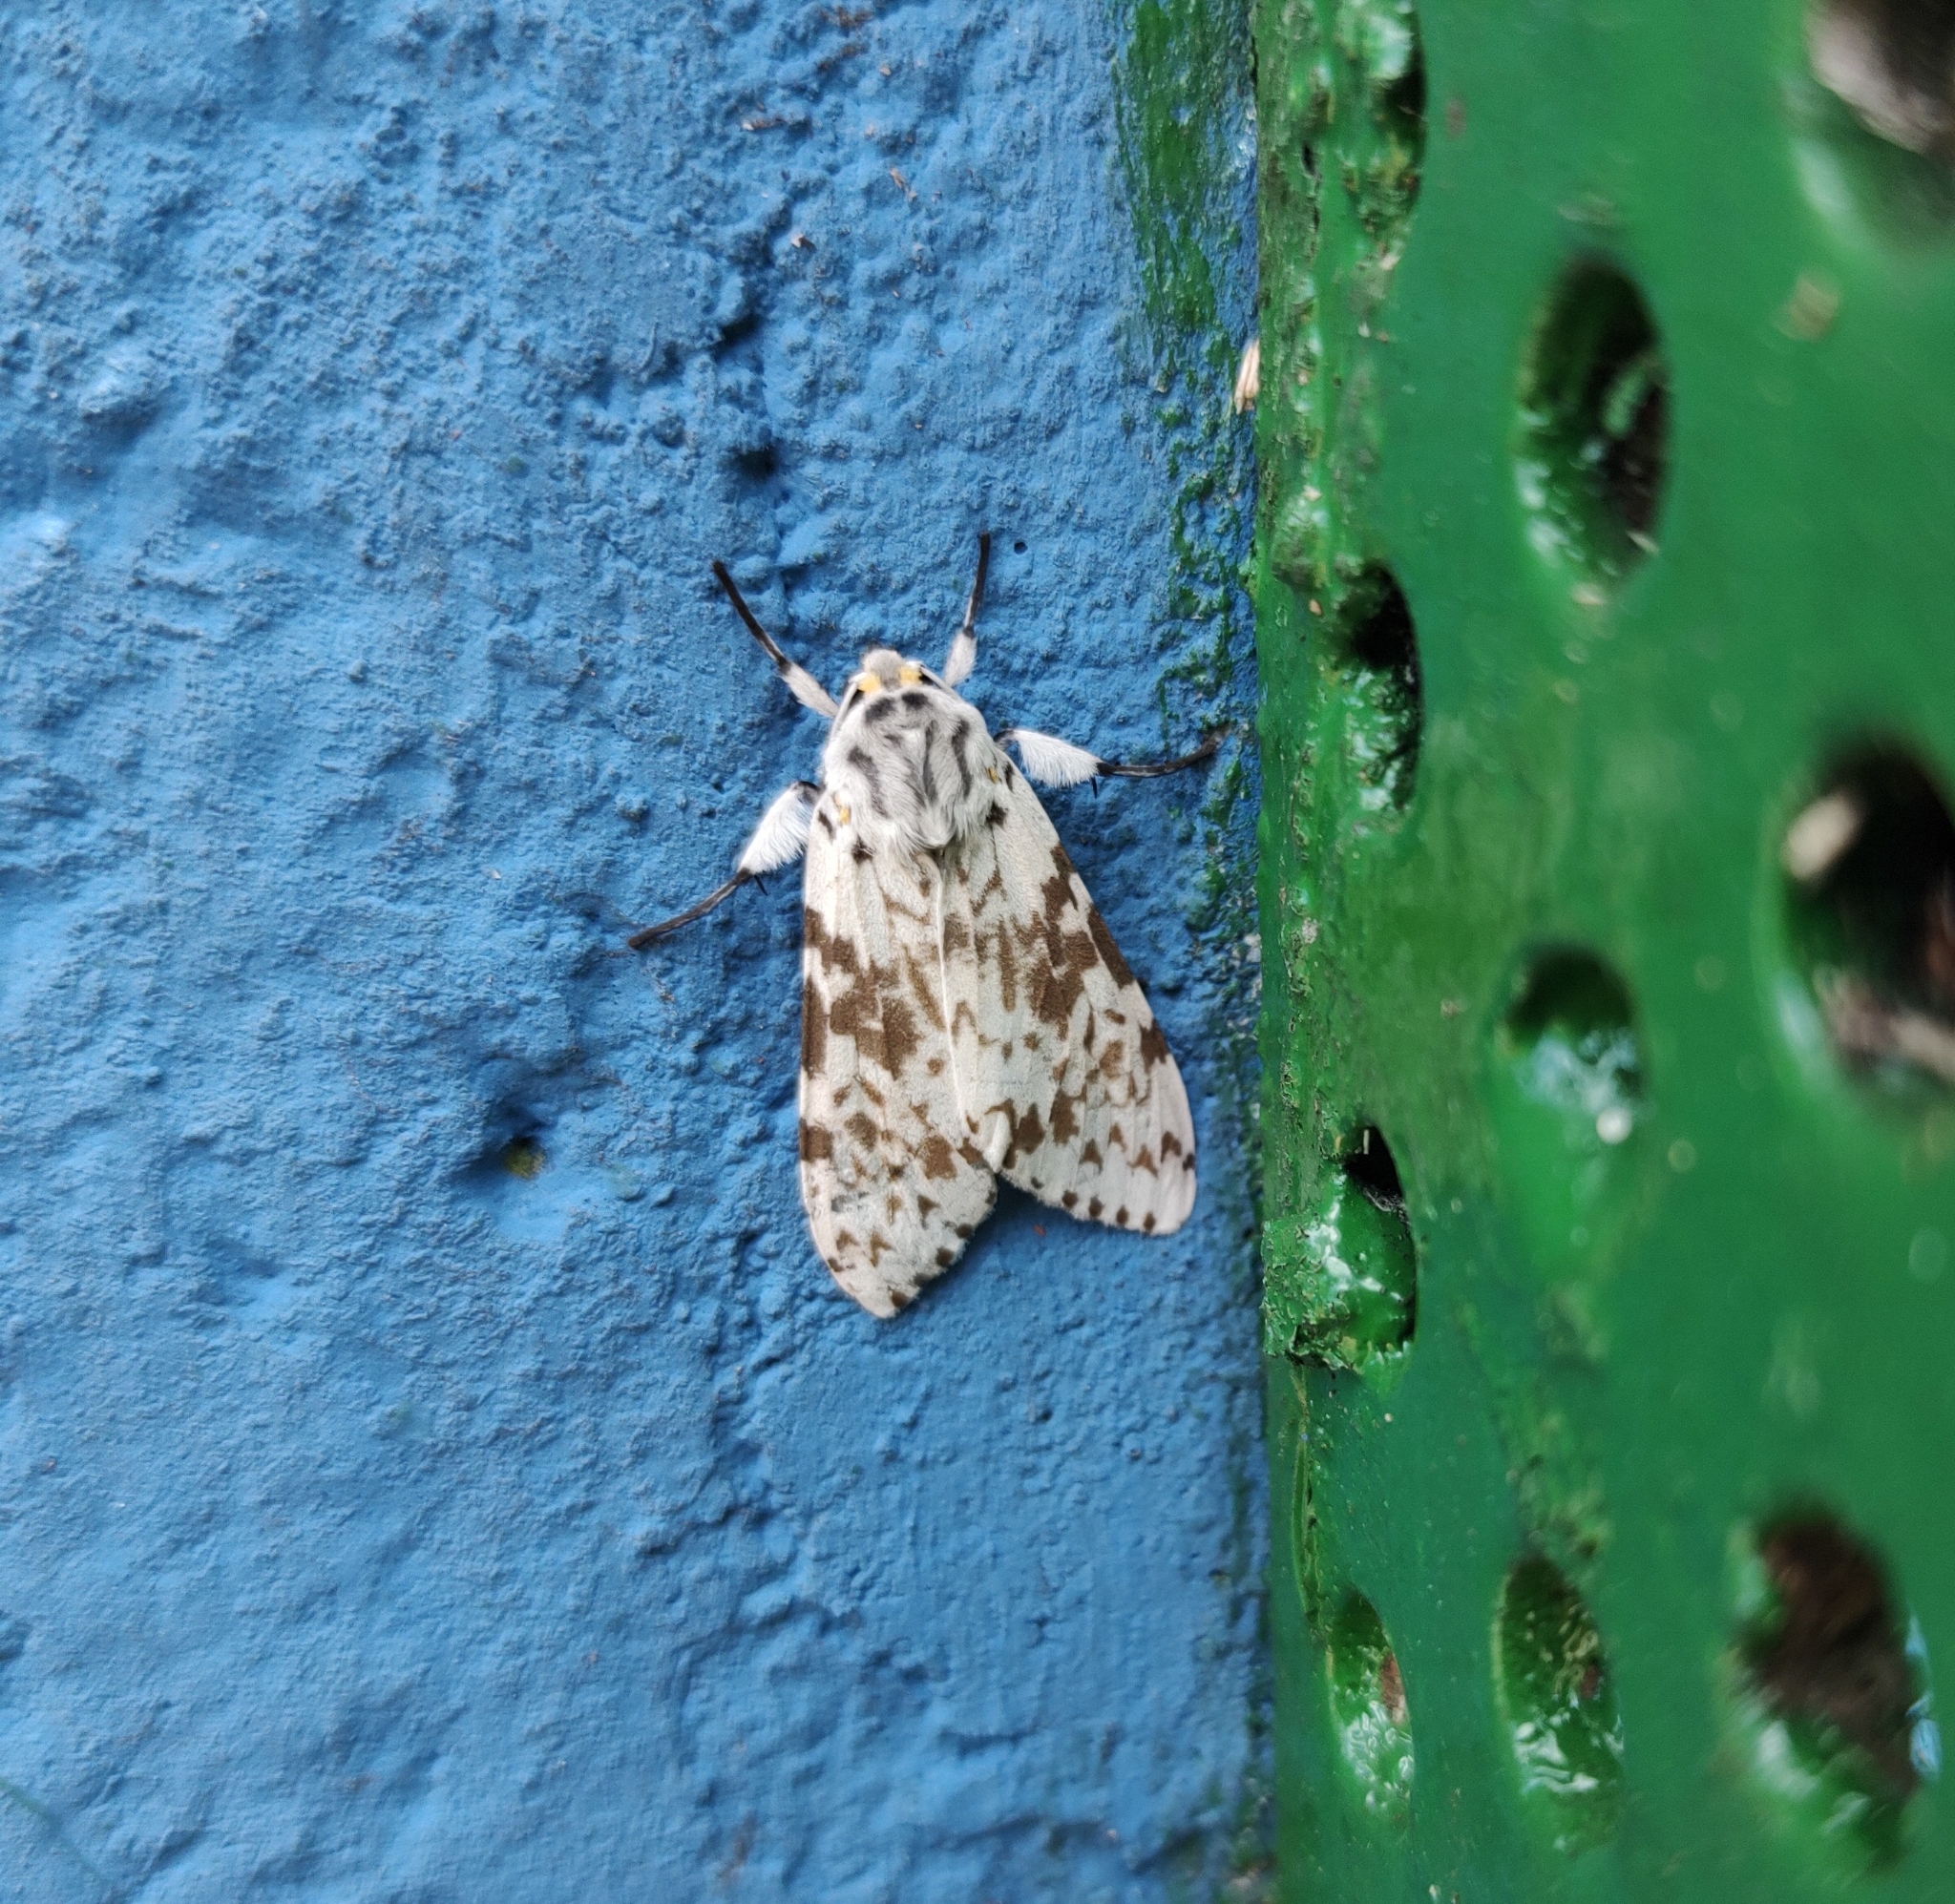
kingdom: Animalia
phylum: Arthropoda
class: Insecta
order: Lepidoptera
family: Erebidae
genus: Lepidozikania
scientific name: Lepidozikania cinerascens
